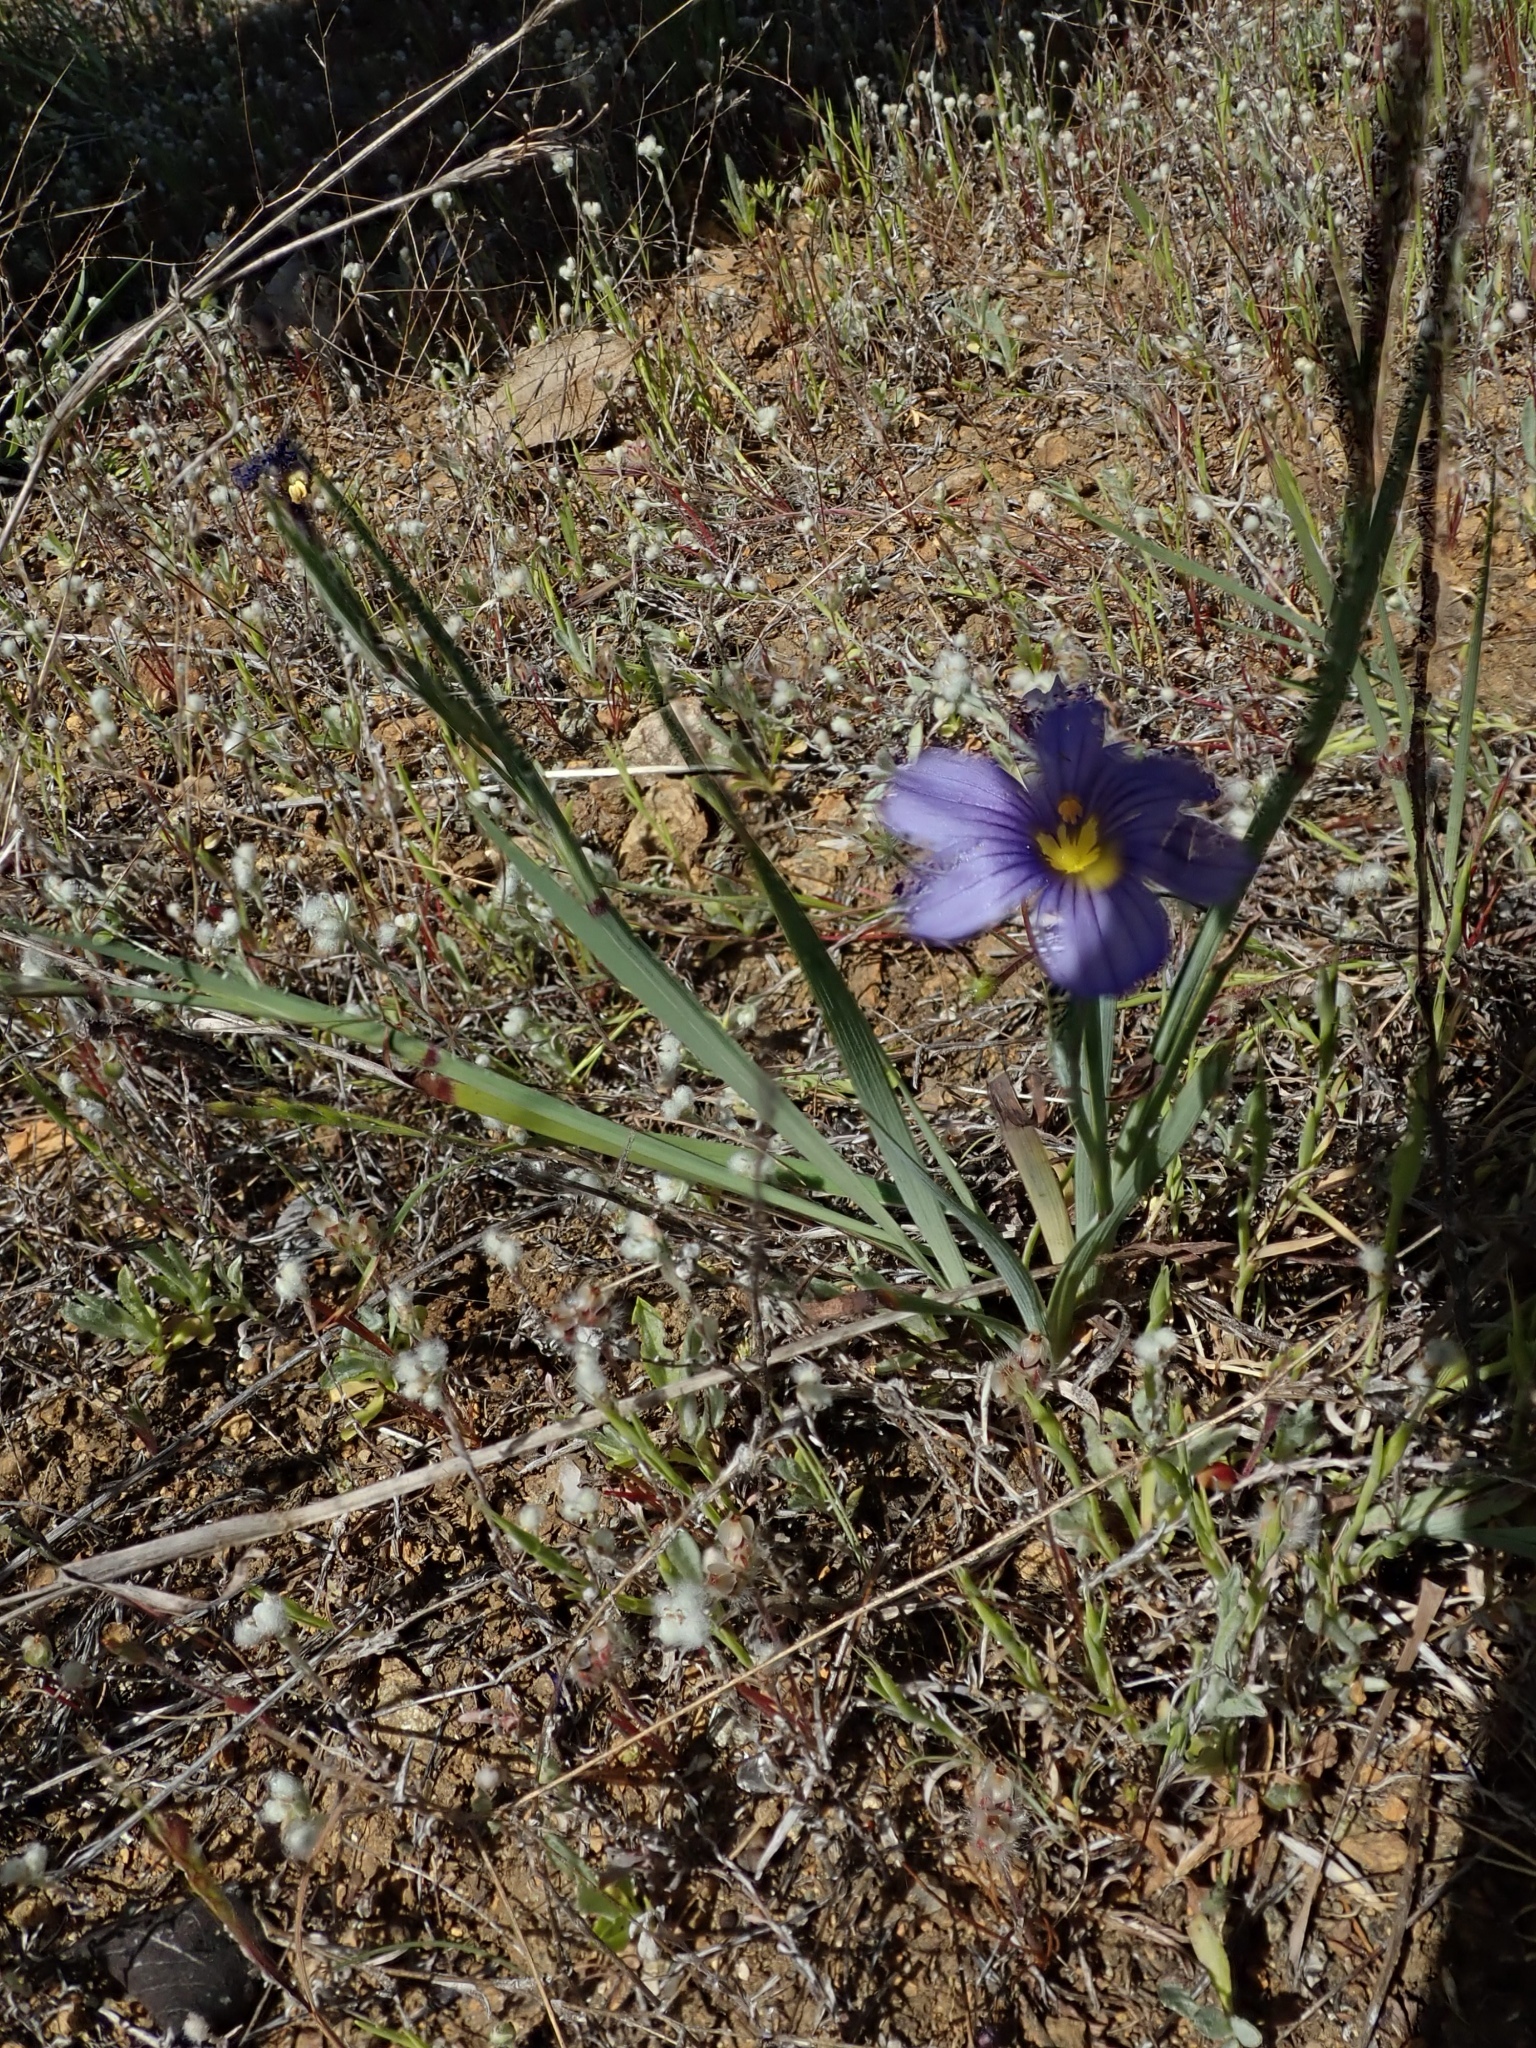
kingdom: Plantae
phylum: Tracheophyta
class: Liliopsida
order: Asparagales
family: Iridaceae
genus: Sisyrinchium
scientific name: Sisyrinchium bellum
